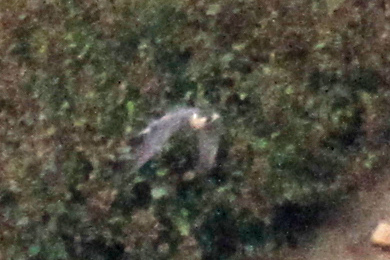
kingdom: Animalia
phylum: Chordata
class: Aves
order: Falconiformes
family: Falconidae
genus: Falco
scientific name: Falco peregrinus
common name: Peregrine falcon
